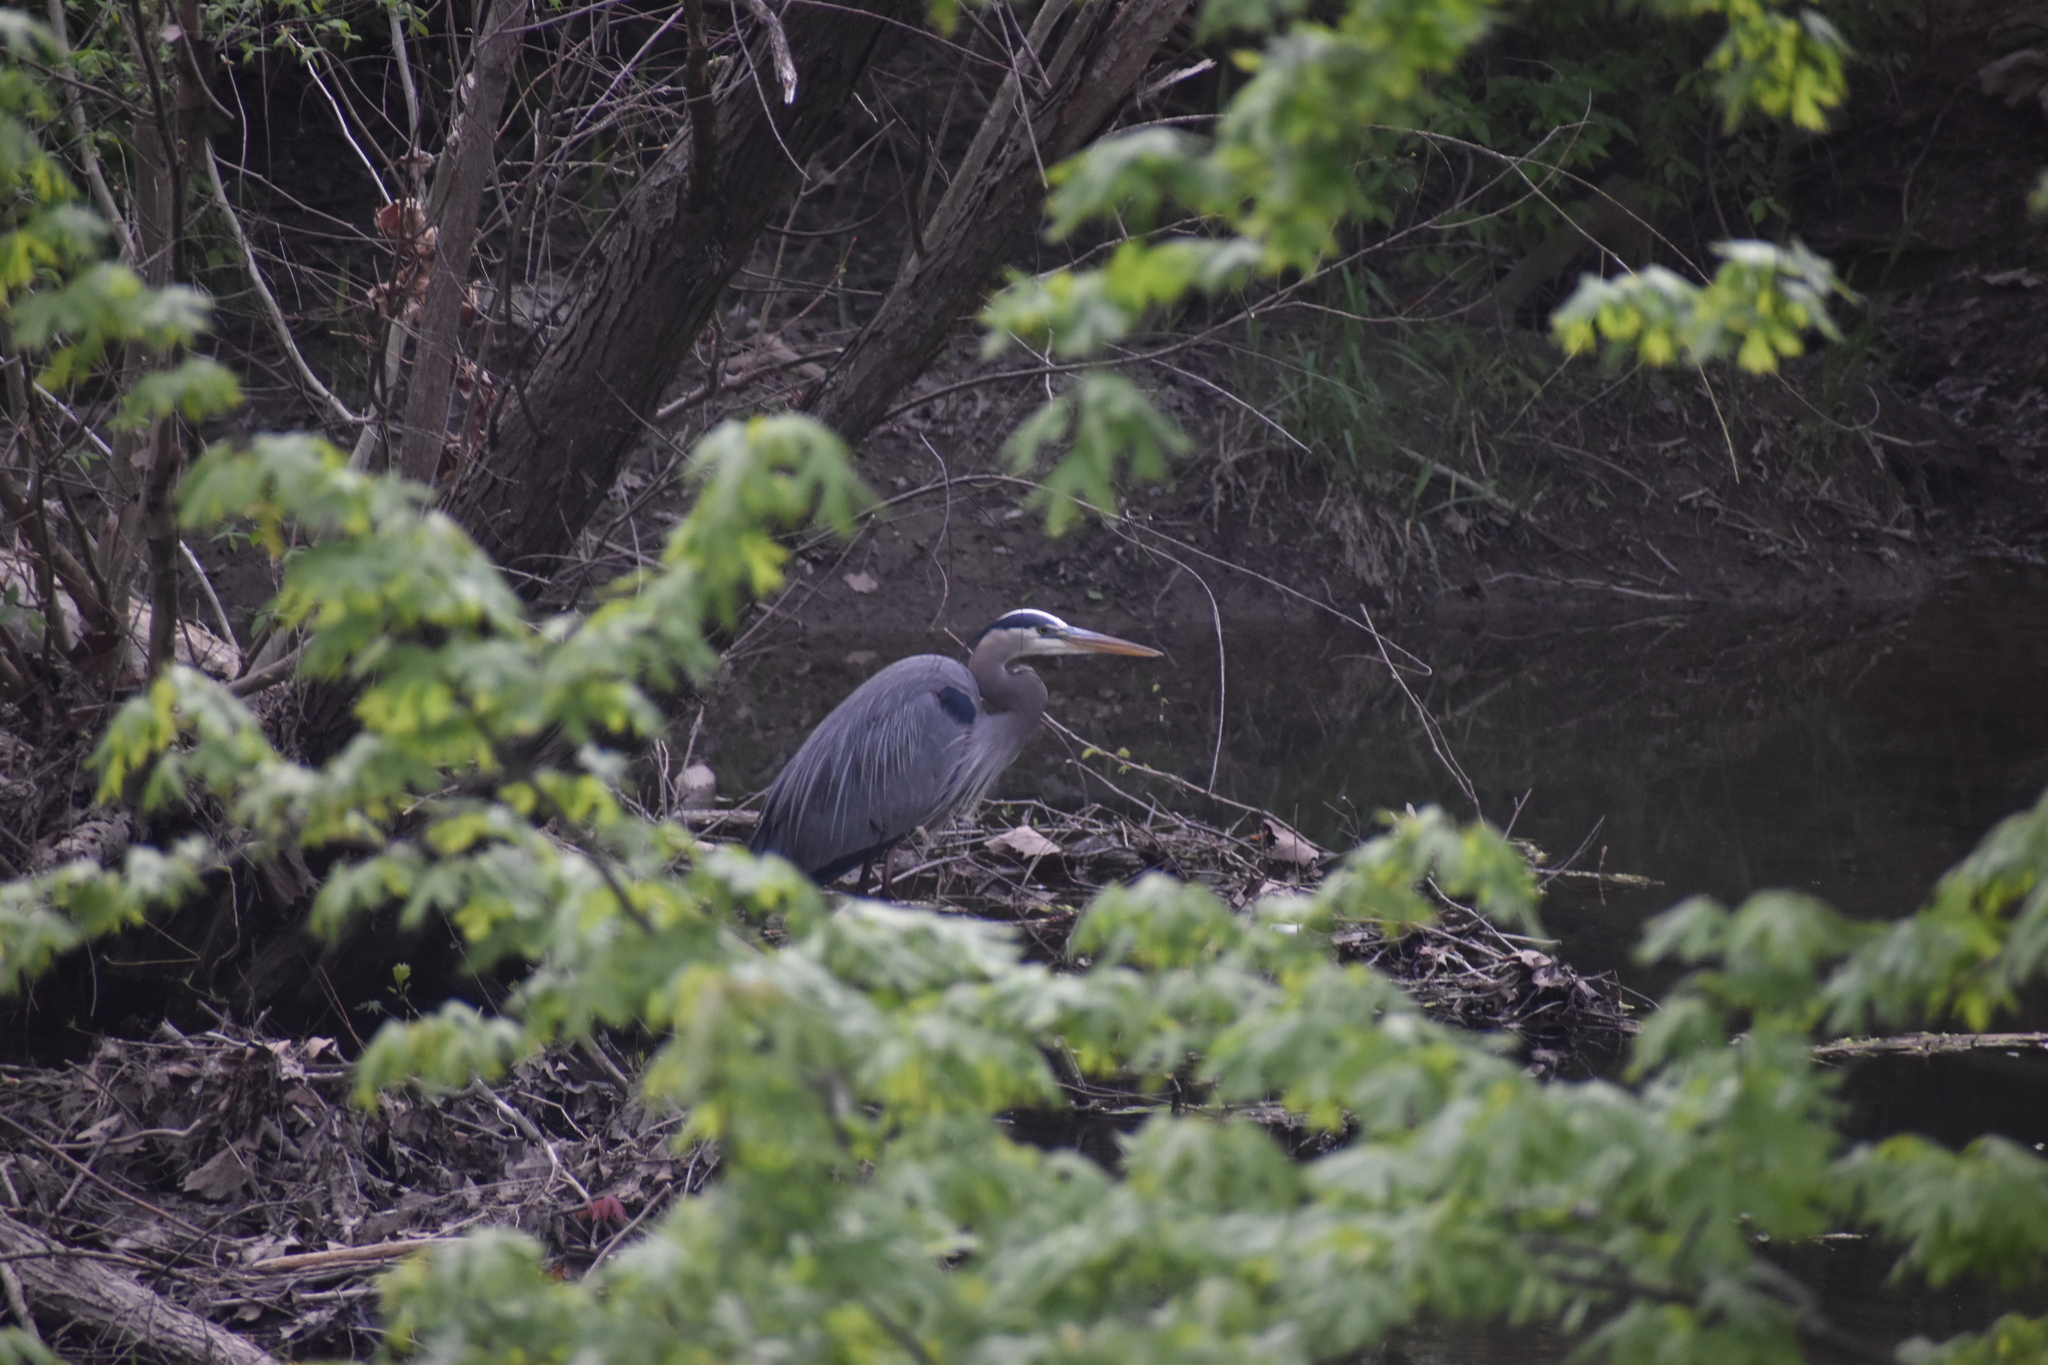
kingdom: Animalia
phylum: Chordata
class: Aves
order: Pelecaniformes
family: Ardeidae
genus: Ardea
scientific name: Ardea herodias
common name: Great blue heron
